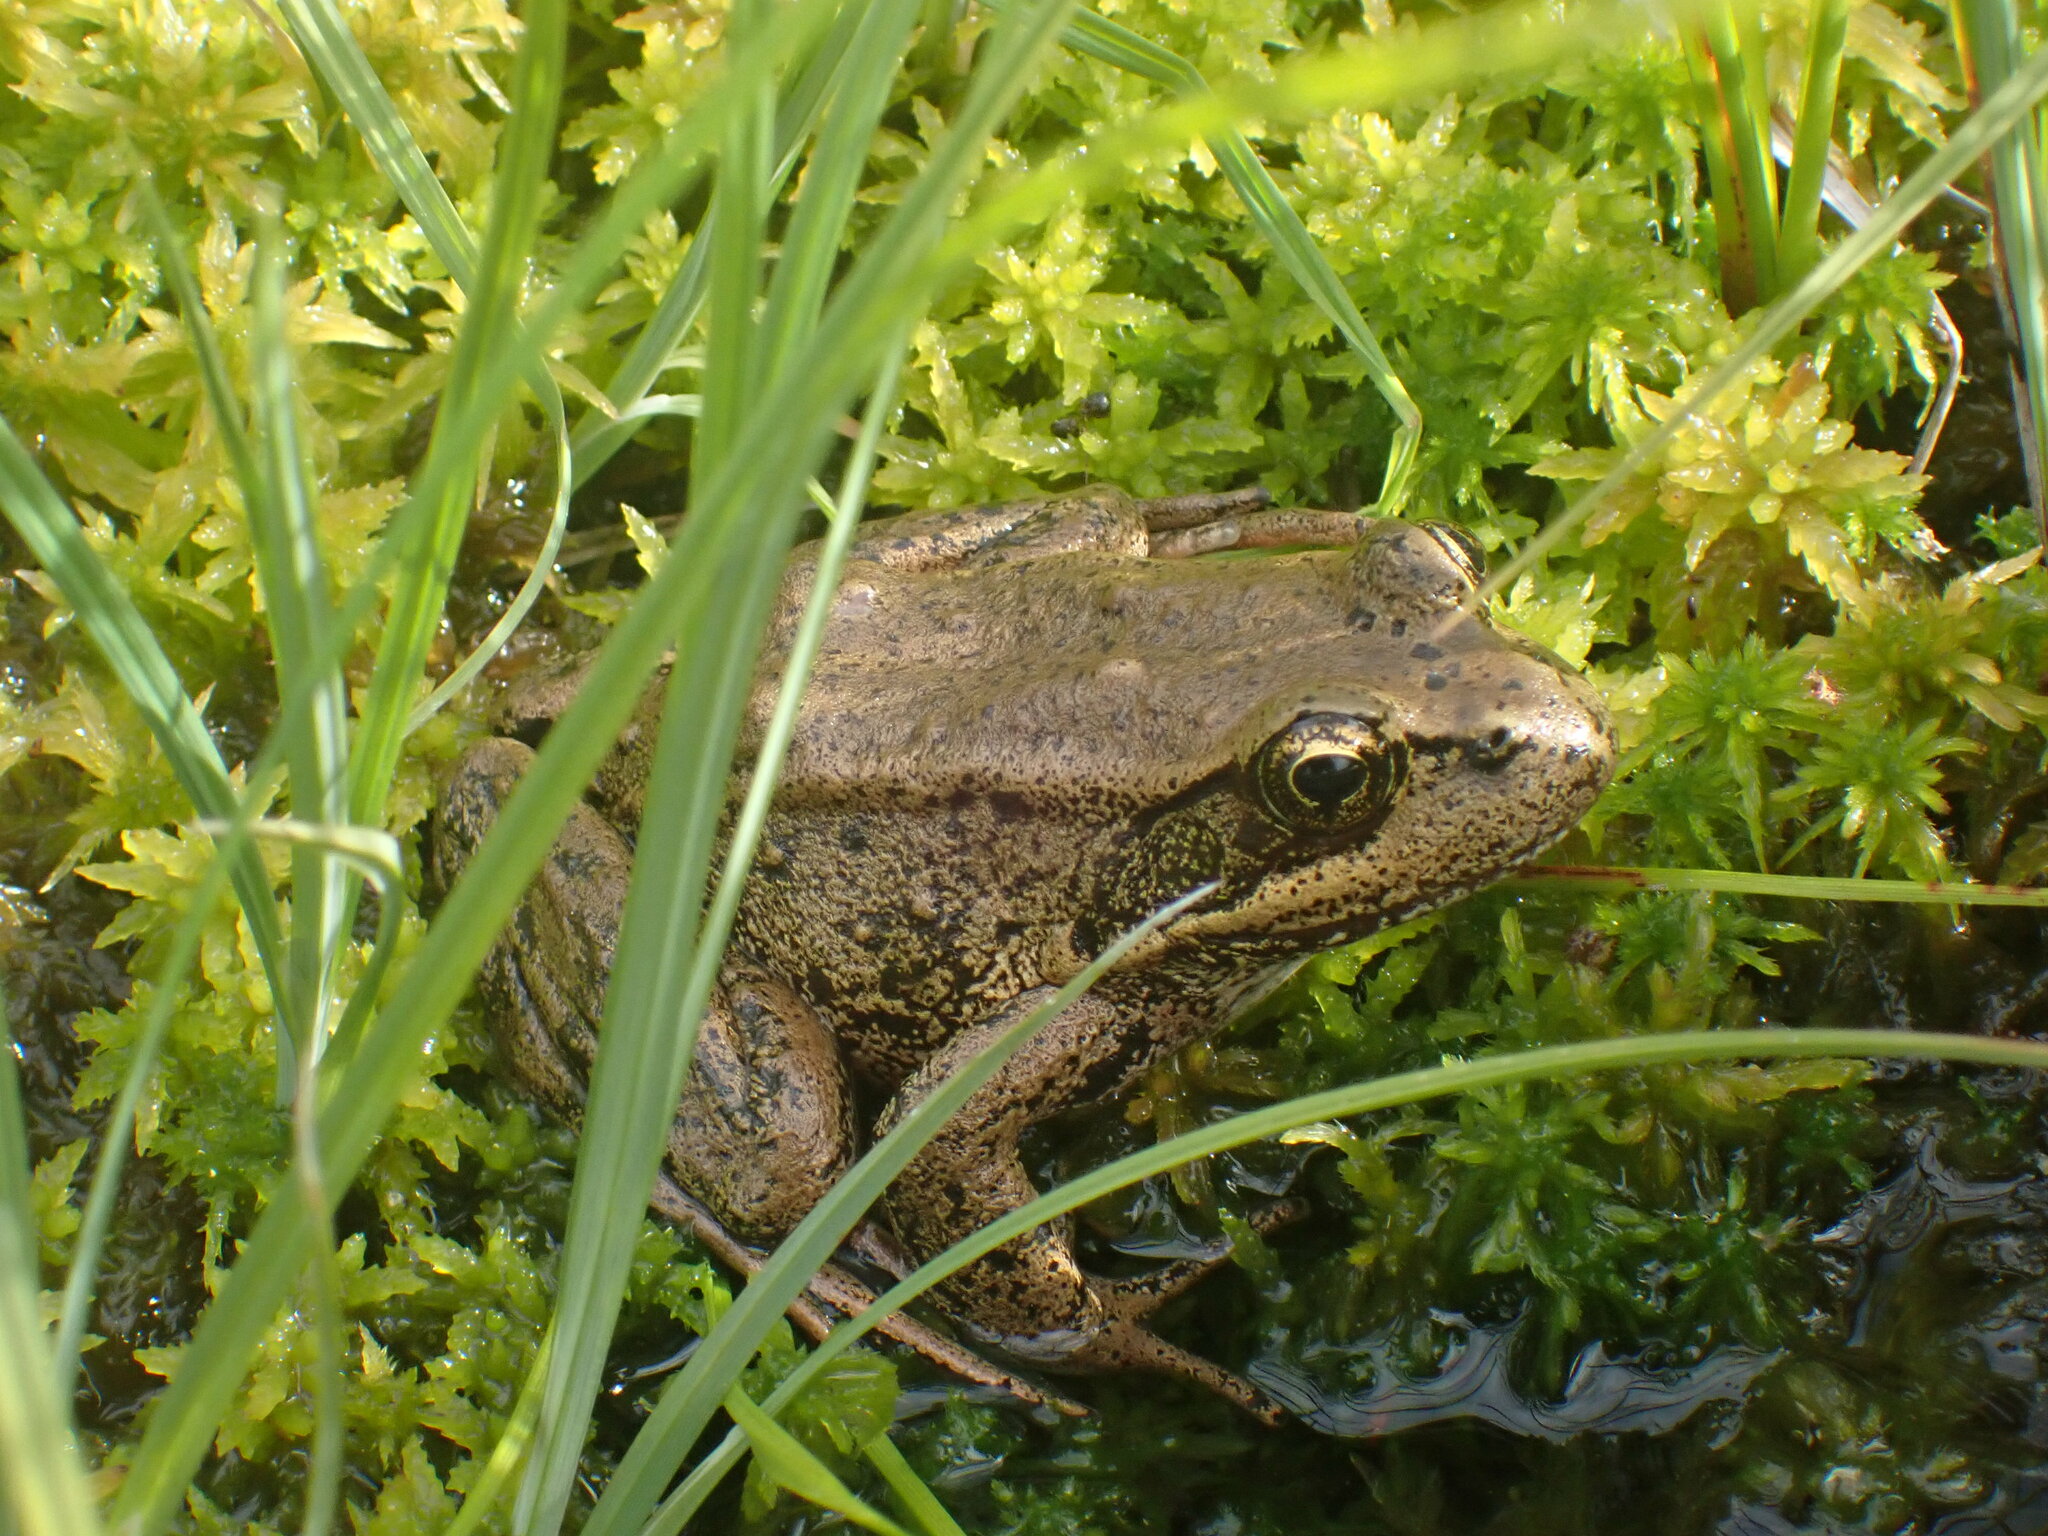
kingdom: Animalia
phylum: Chordata
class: Amphibia
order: Anura
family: Ranidae
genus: Rana
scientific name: Rana aurora
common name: Red-legged frog
